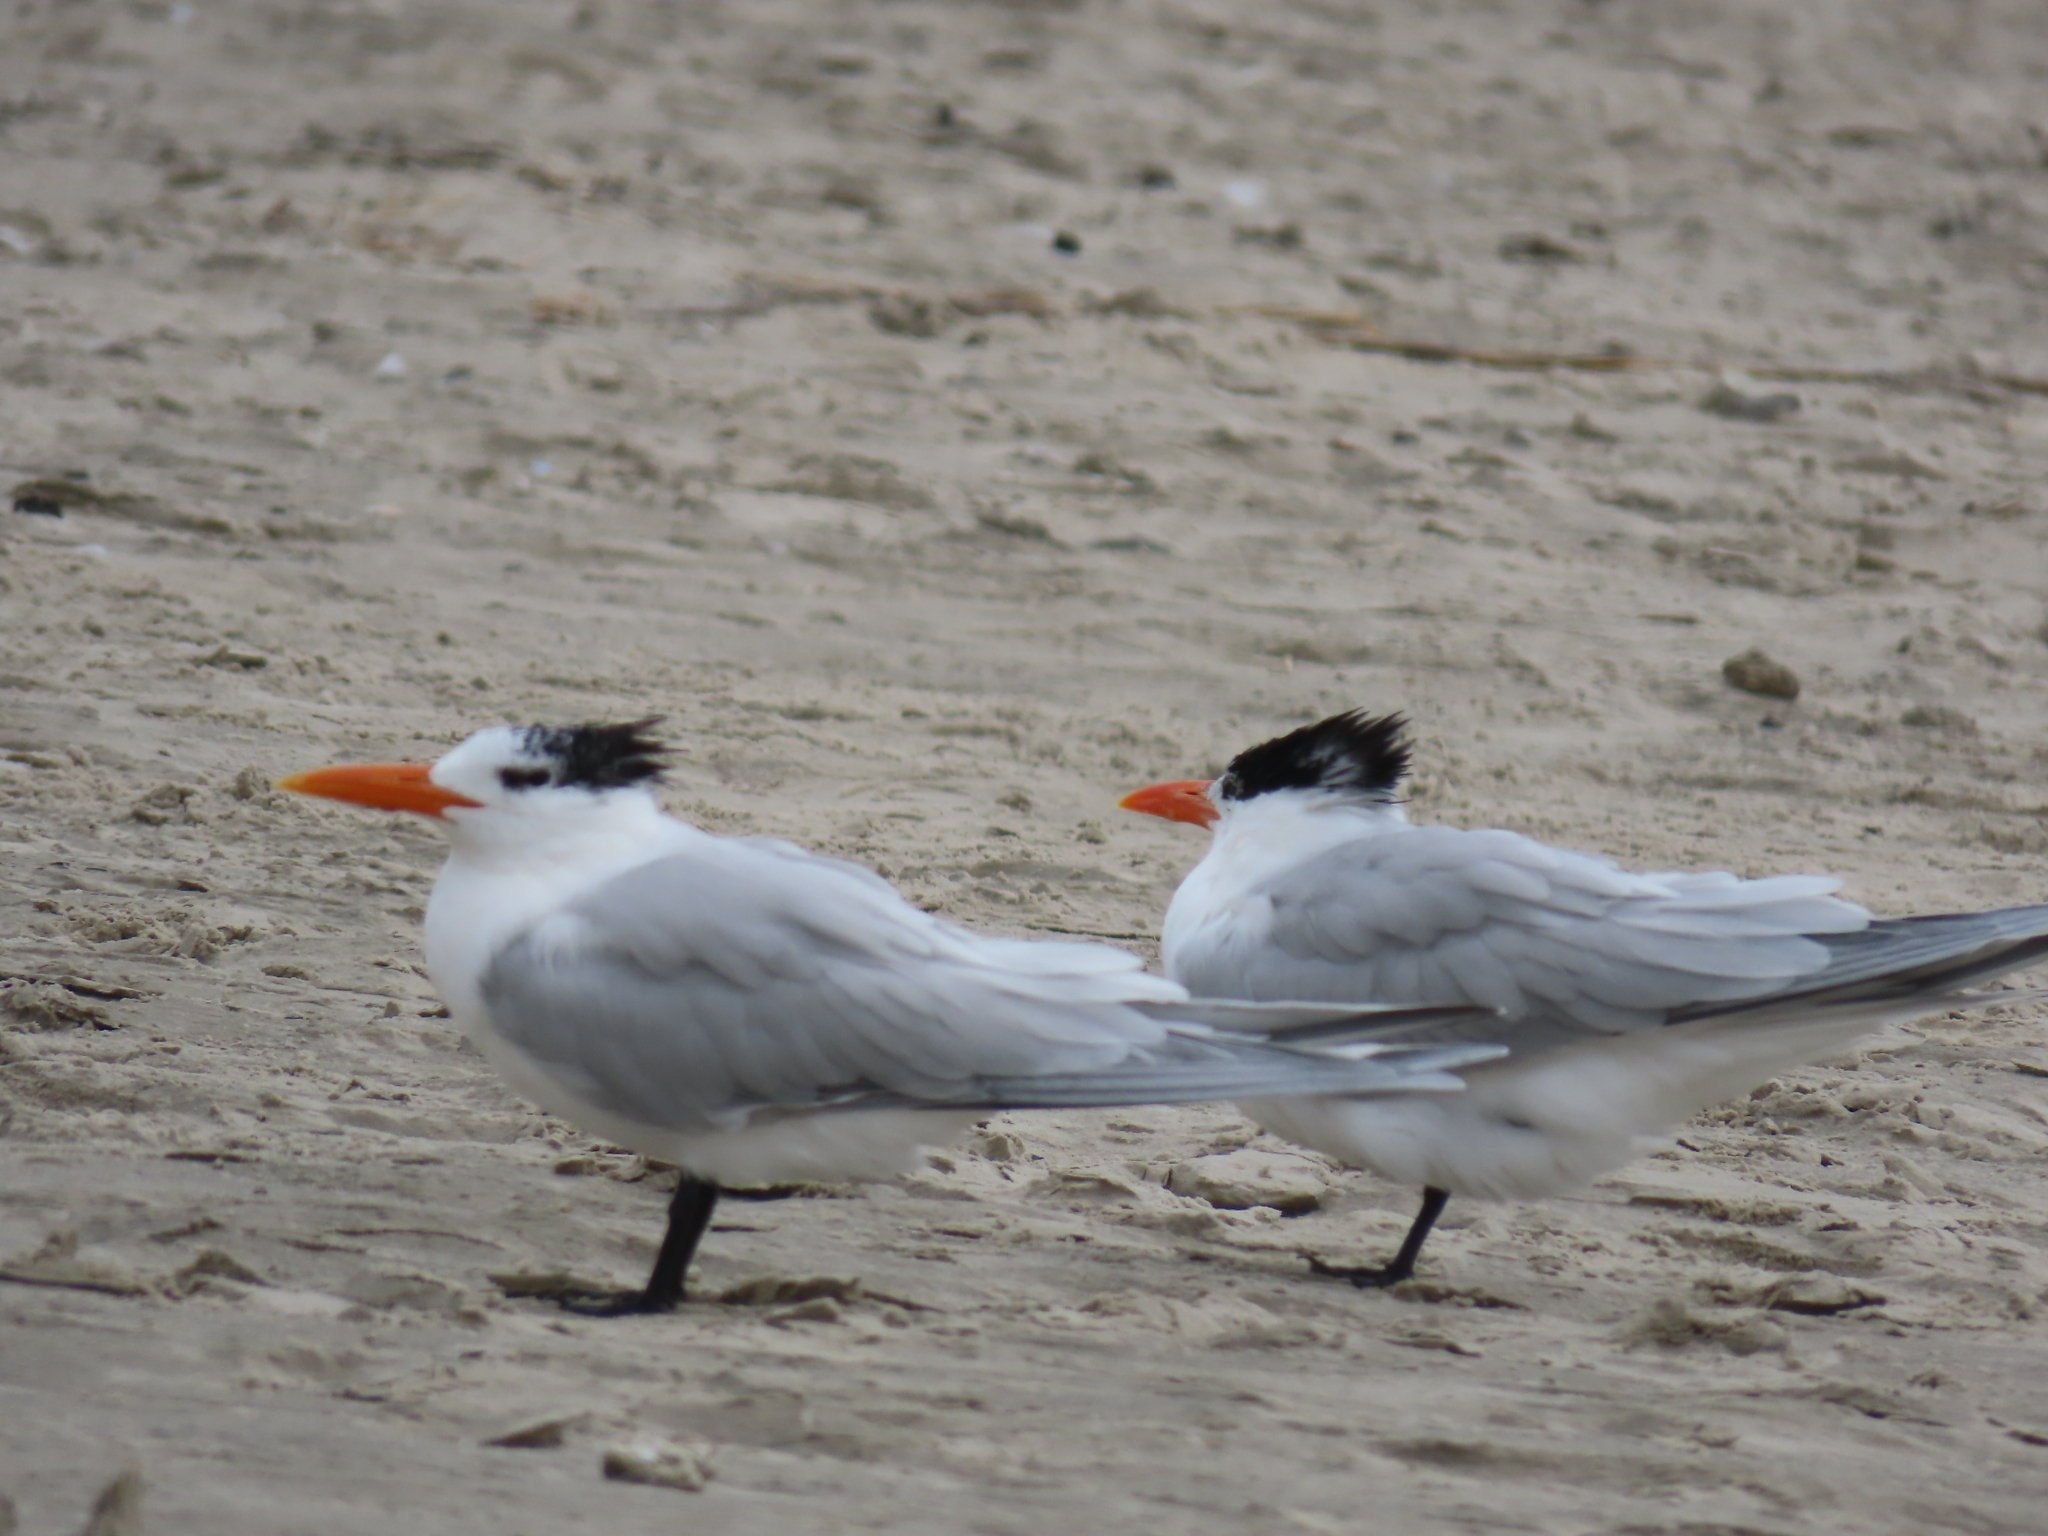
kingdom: Animalia
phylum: Chordata
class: Aves
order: Charadriiformes
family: Laridae
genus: Thalasseus
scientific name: Thalasseus maximus
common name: Royal tern
